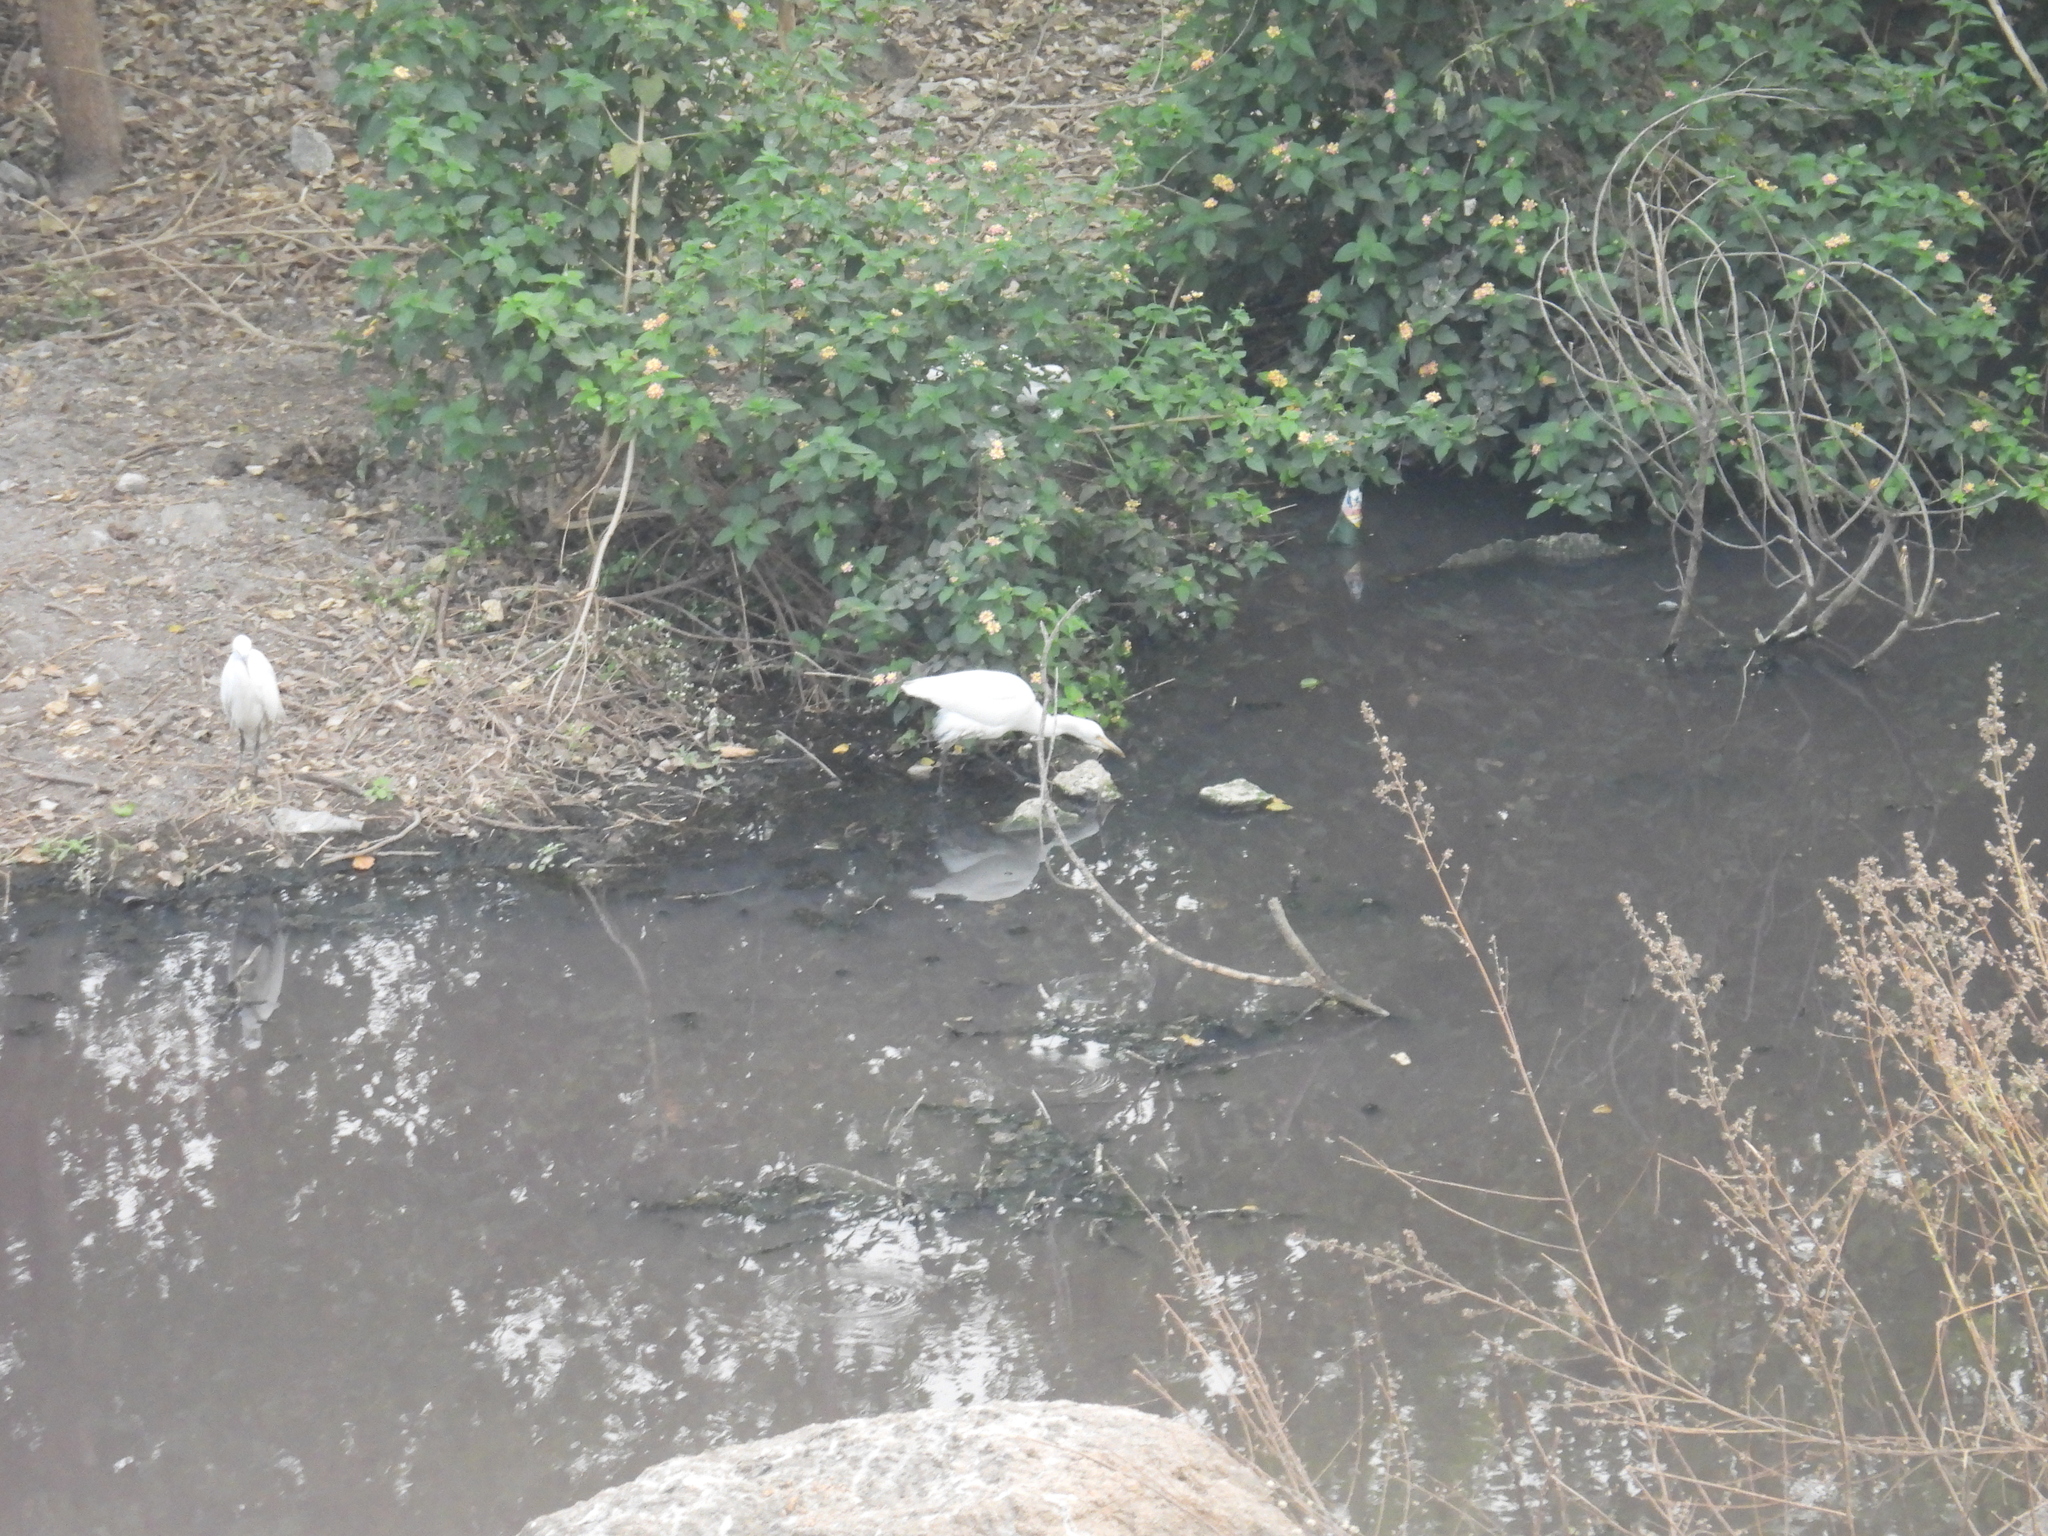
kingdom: Animalia
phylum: Chordata
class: Aves
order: Pelecaniformes
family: Ardeidae
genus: Egretta
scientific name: Egretta garzetta
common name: Little egret
